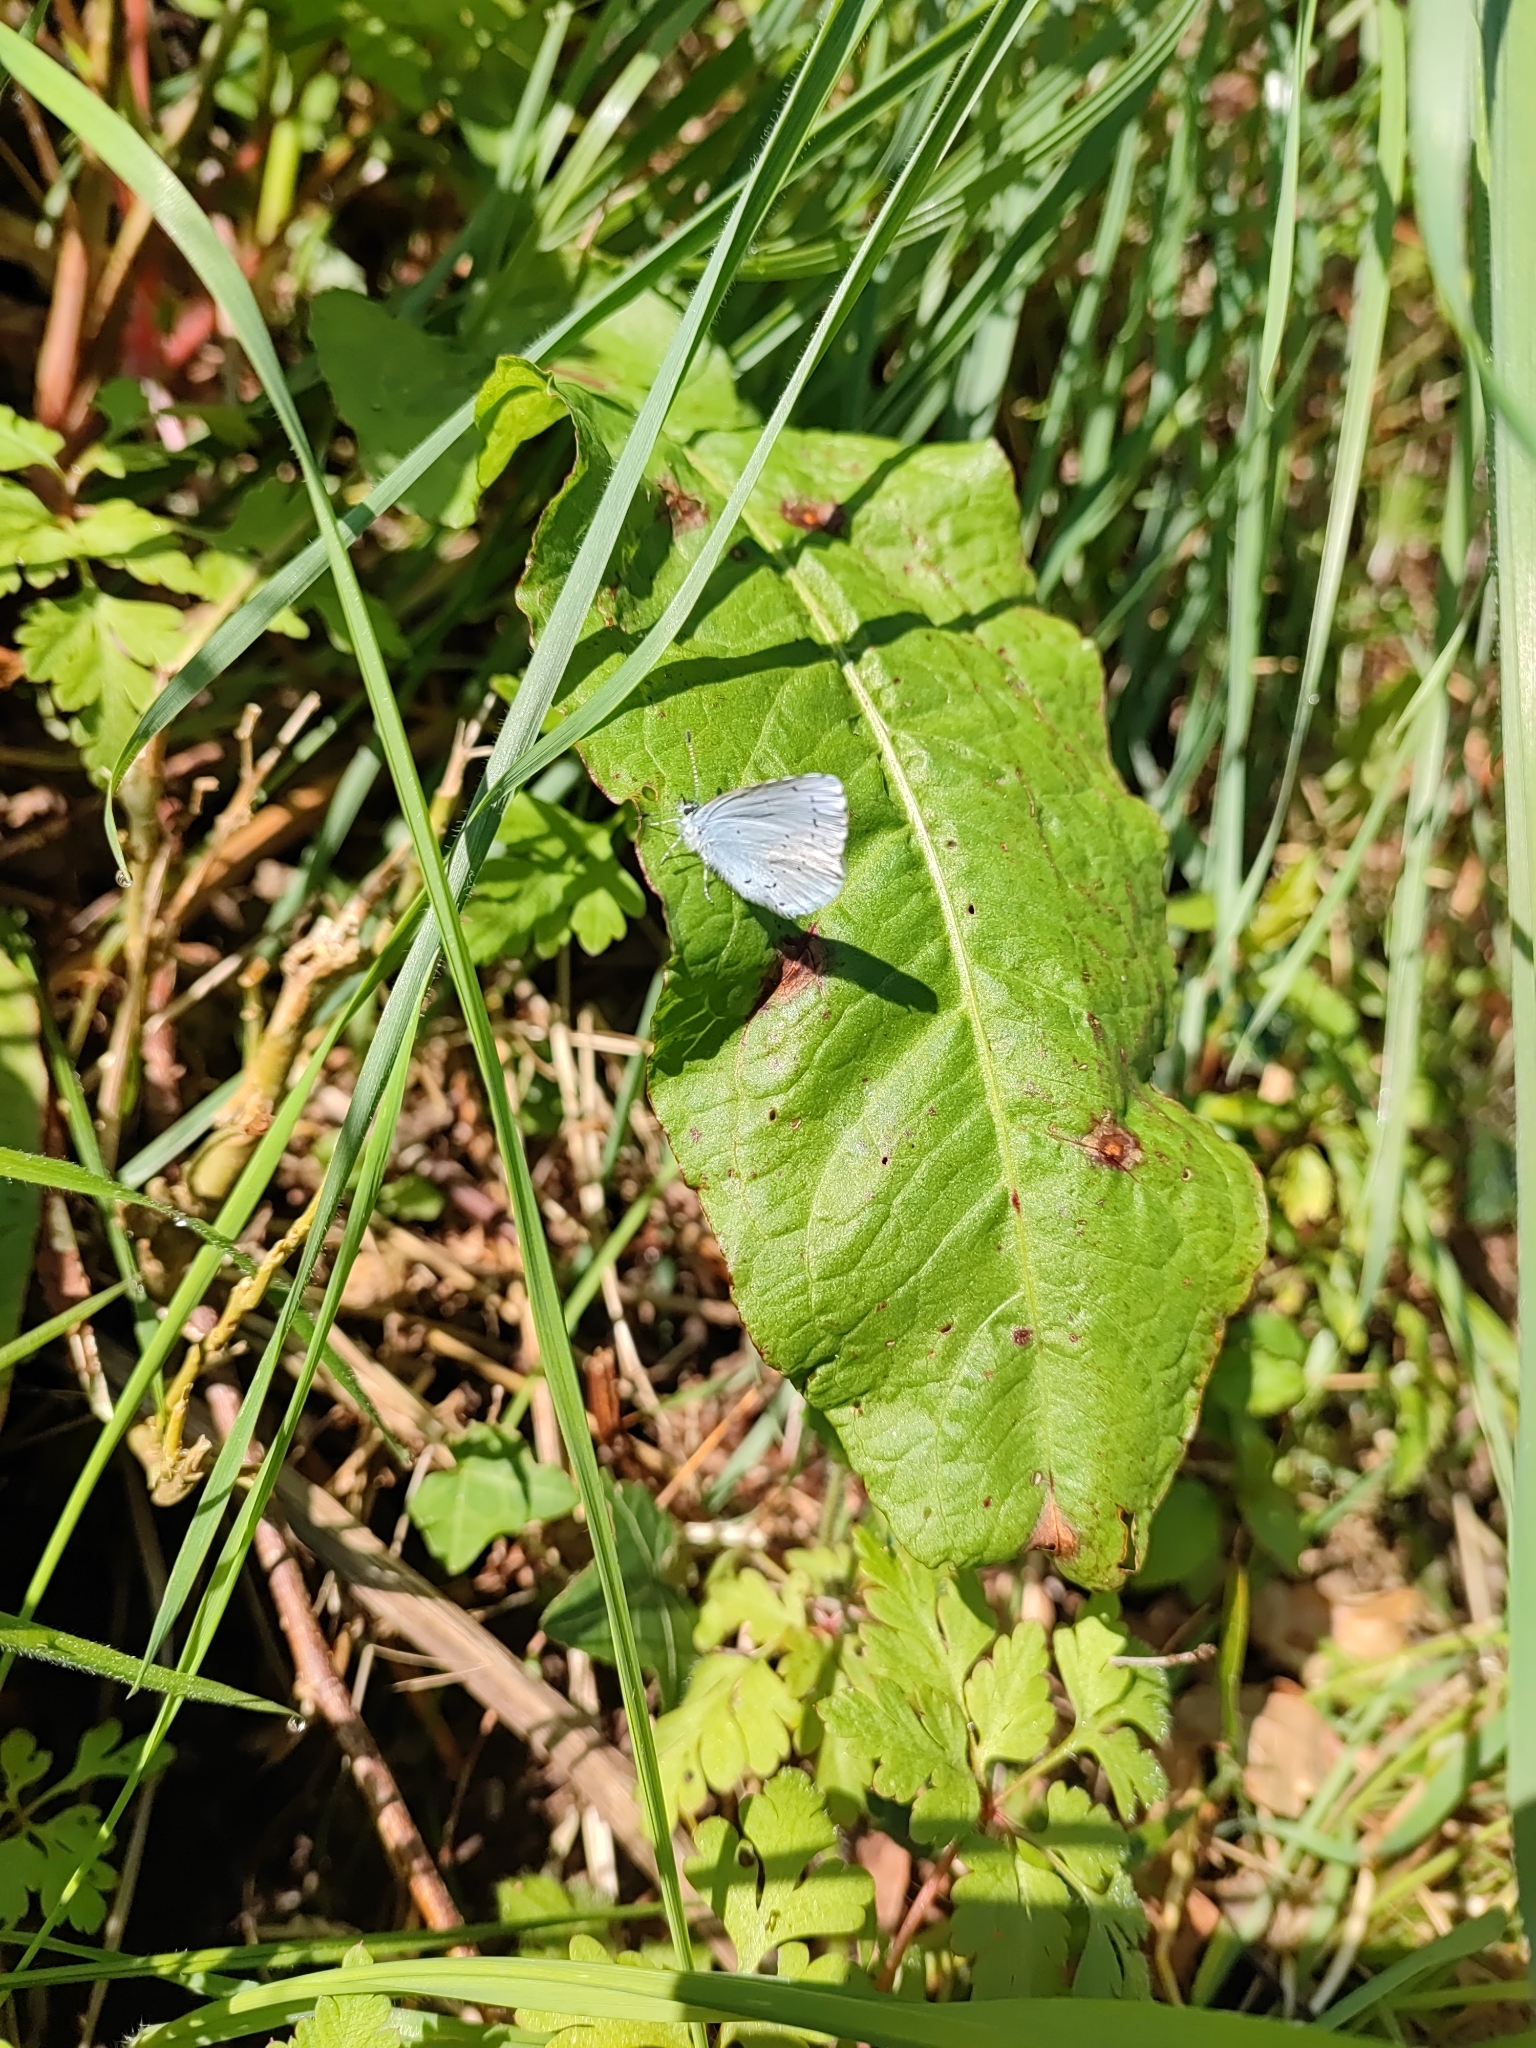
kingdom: Animalia
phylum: Arthropoda
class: Insecta
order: Lepidoptera
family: Lycaenidae
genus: Celastrina
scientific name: Celastrina argiolus
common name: Holly blue
